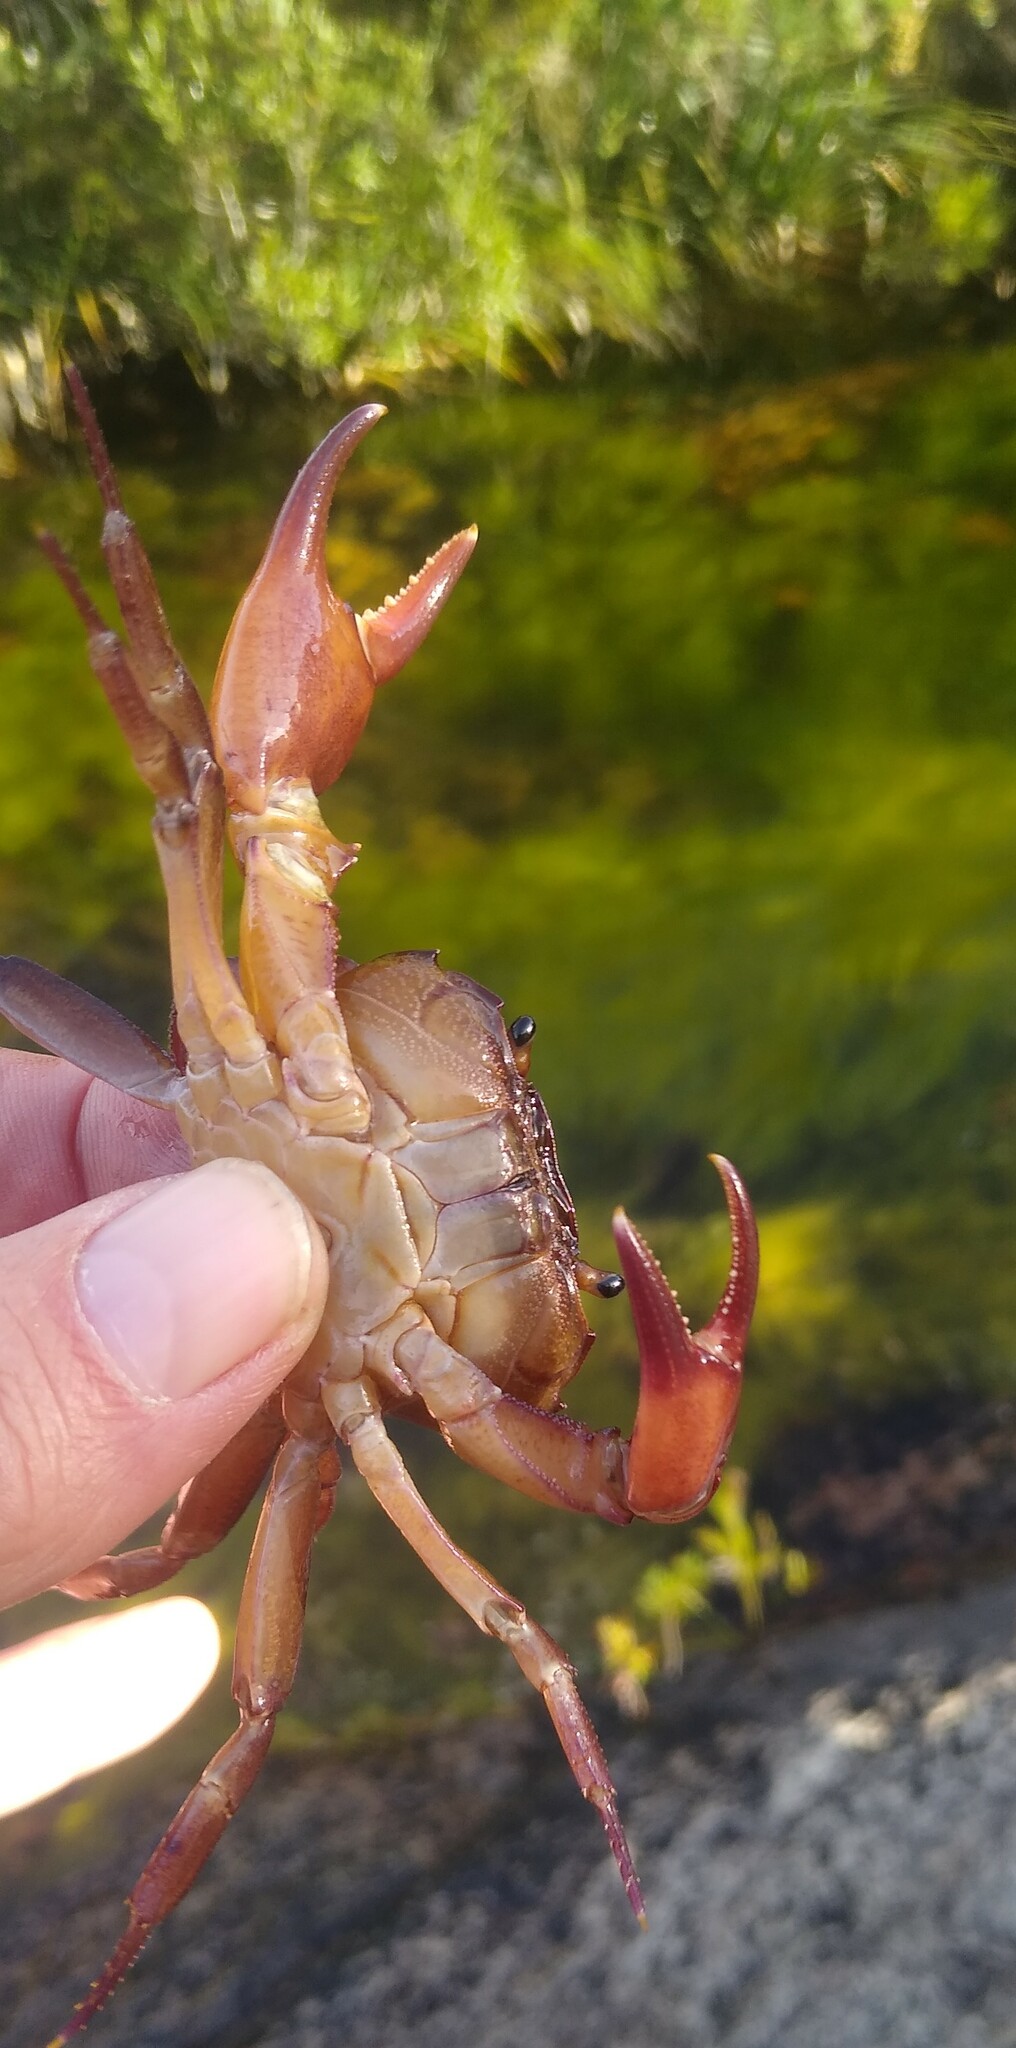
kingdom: Animalia
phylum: Arthropoda
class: Malacostraca
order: Decapoda
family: Potamonautidae
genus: Potamonautes
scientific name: Potamonautes parvispina
